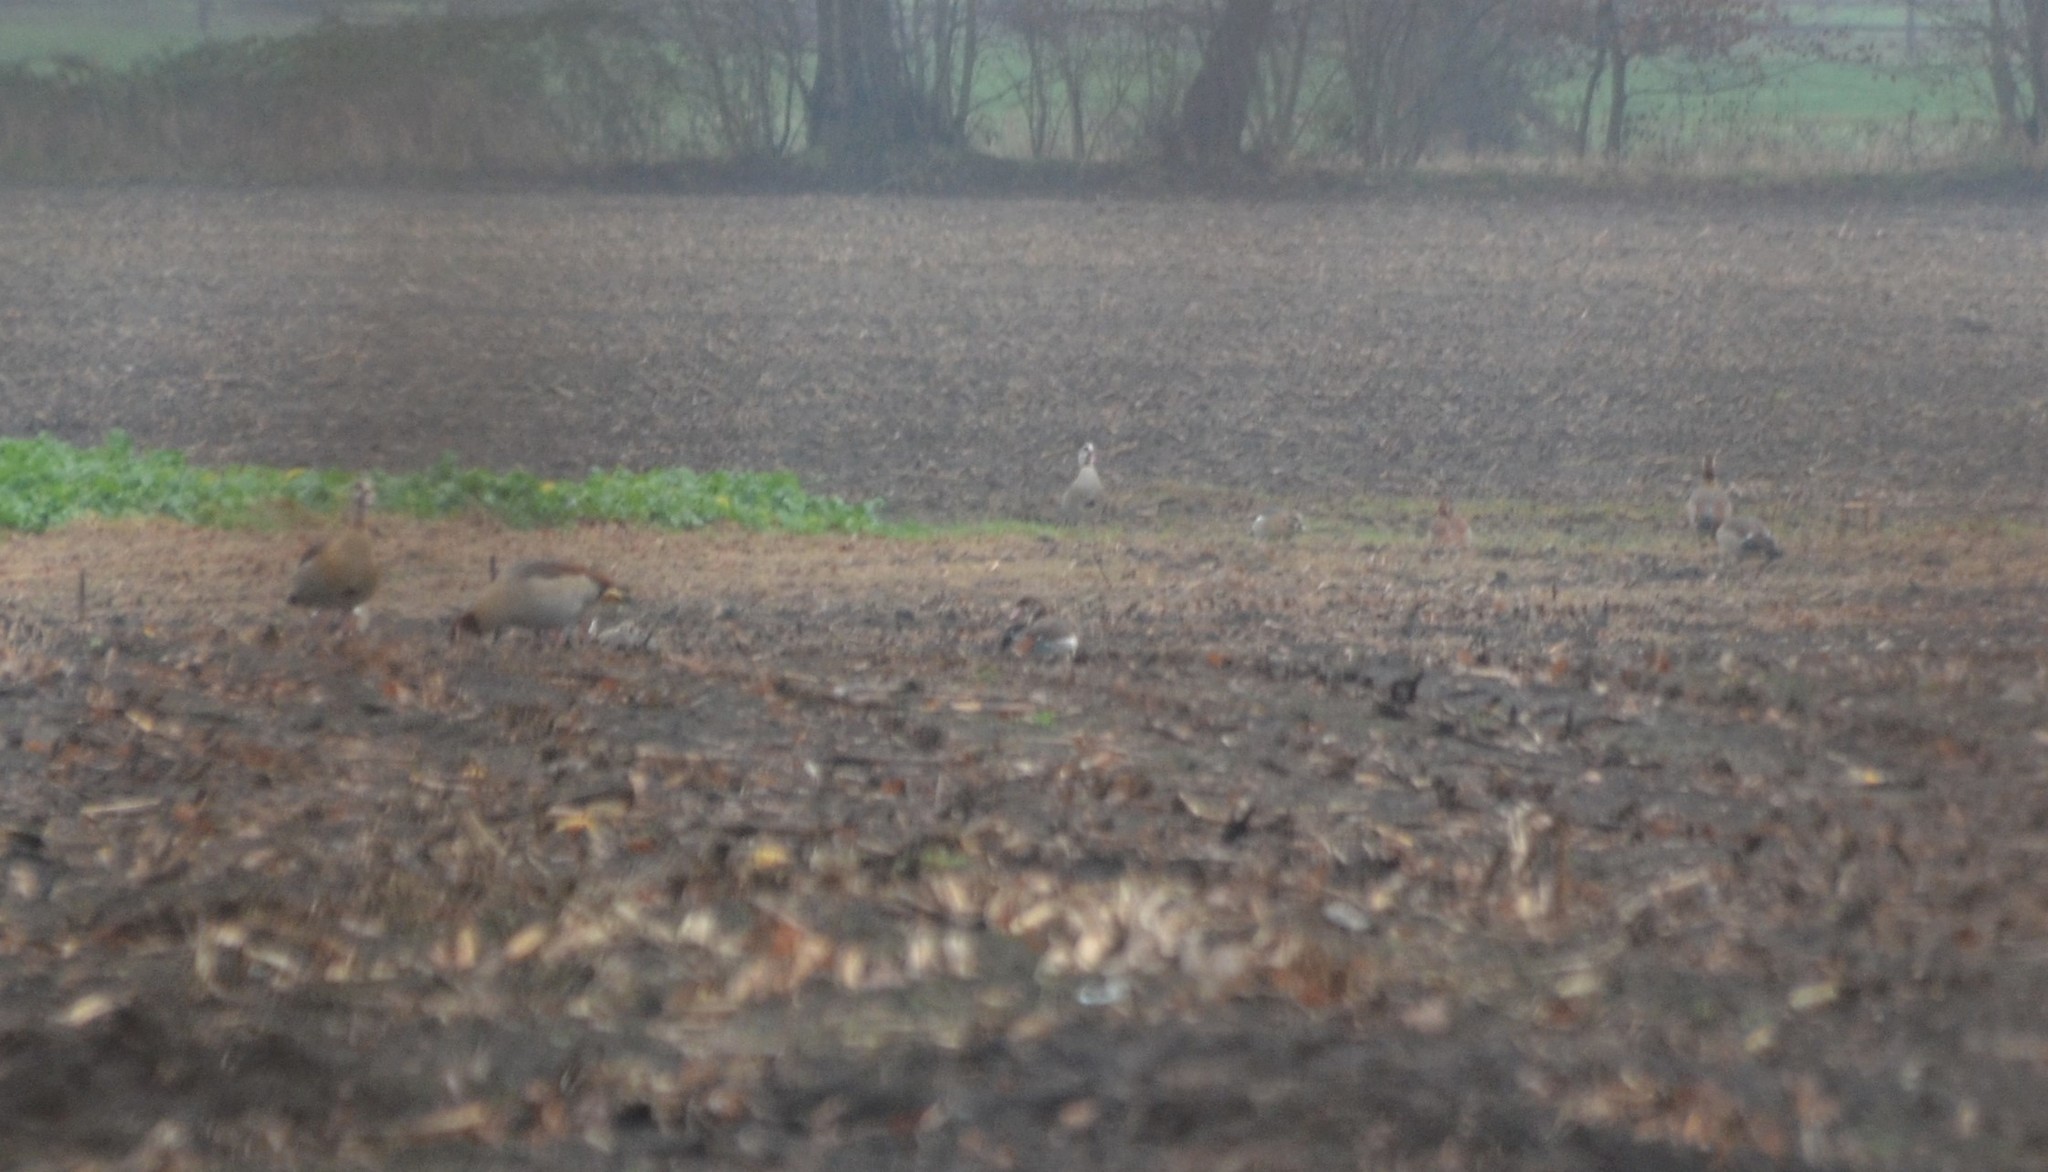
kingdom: Animalia
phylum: Chordata
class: Aves
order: Anseriformes
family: Anatidae
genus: Alopochen
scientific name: Alopochen aegyptiaca
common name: Egyptian goose
